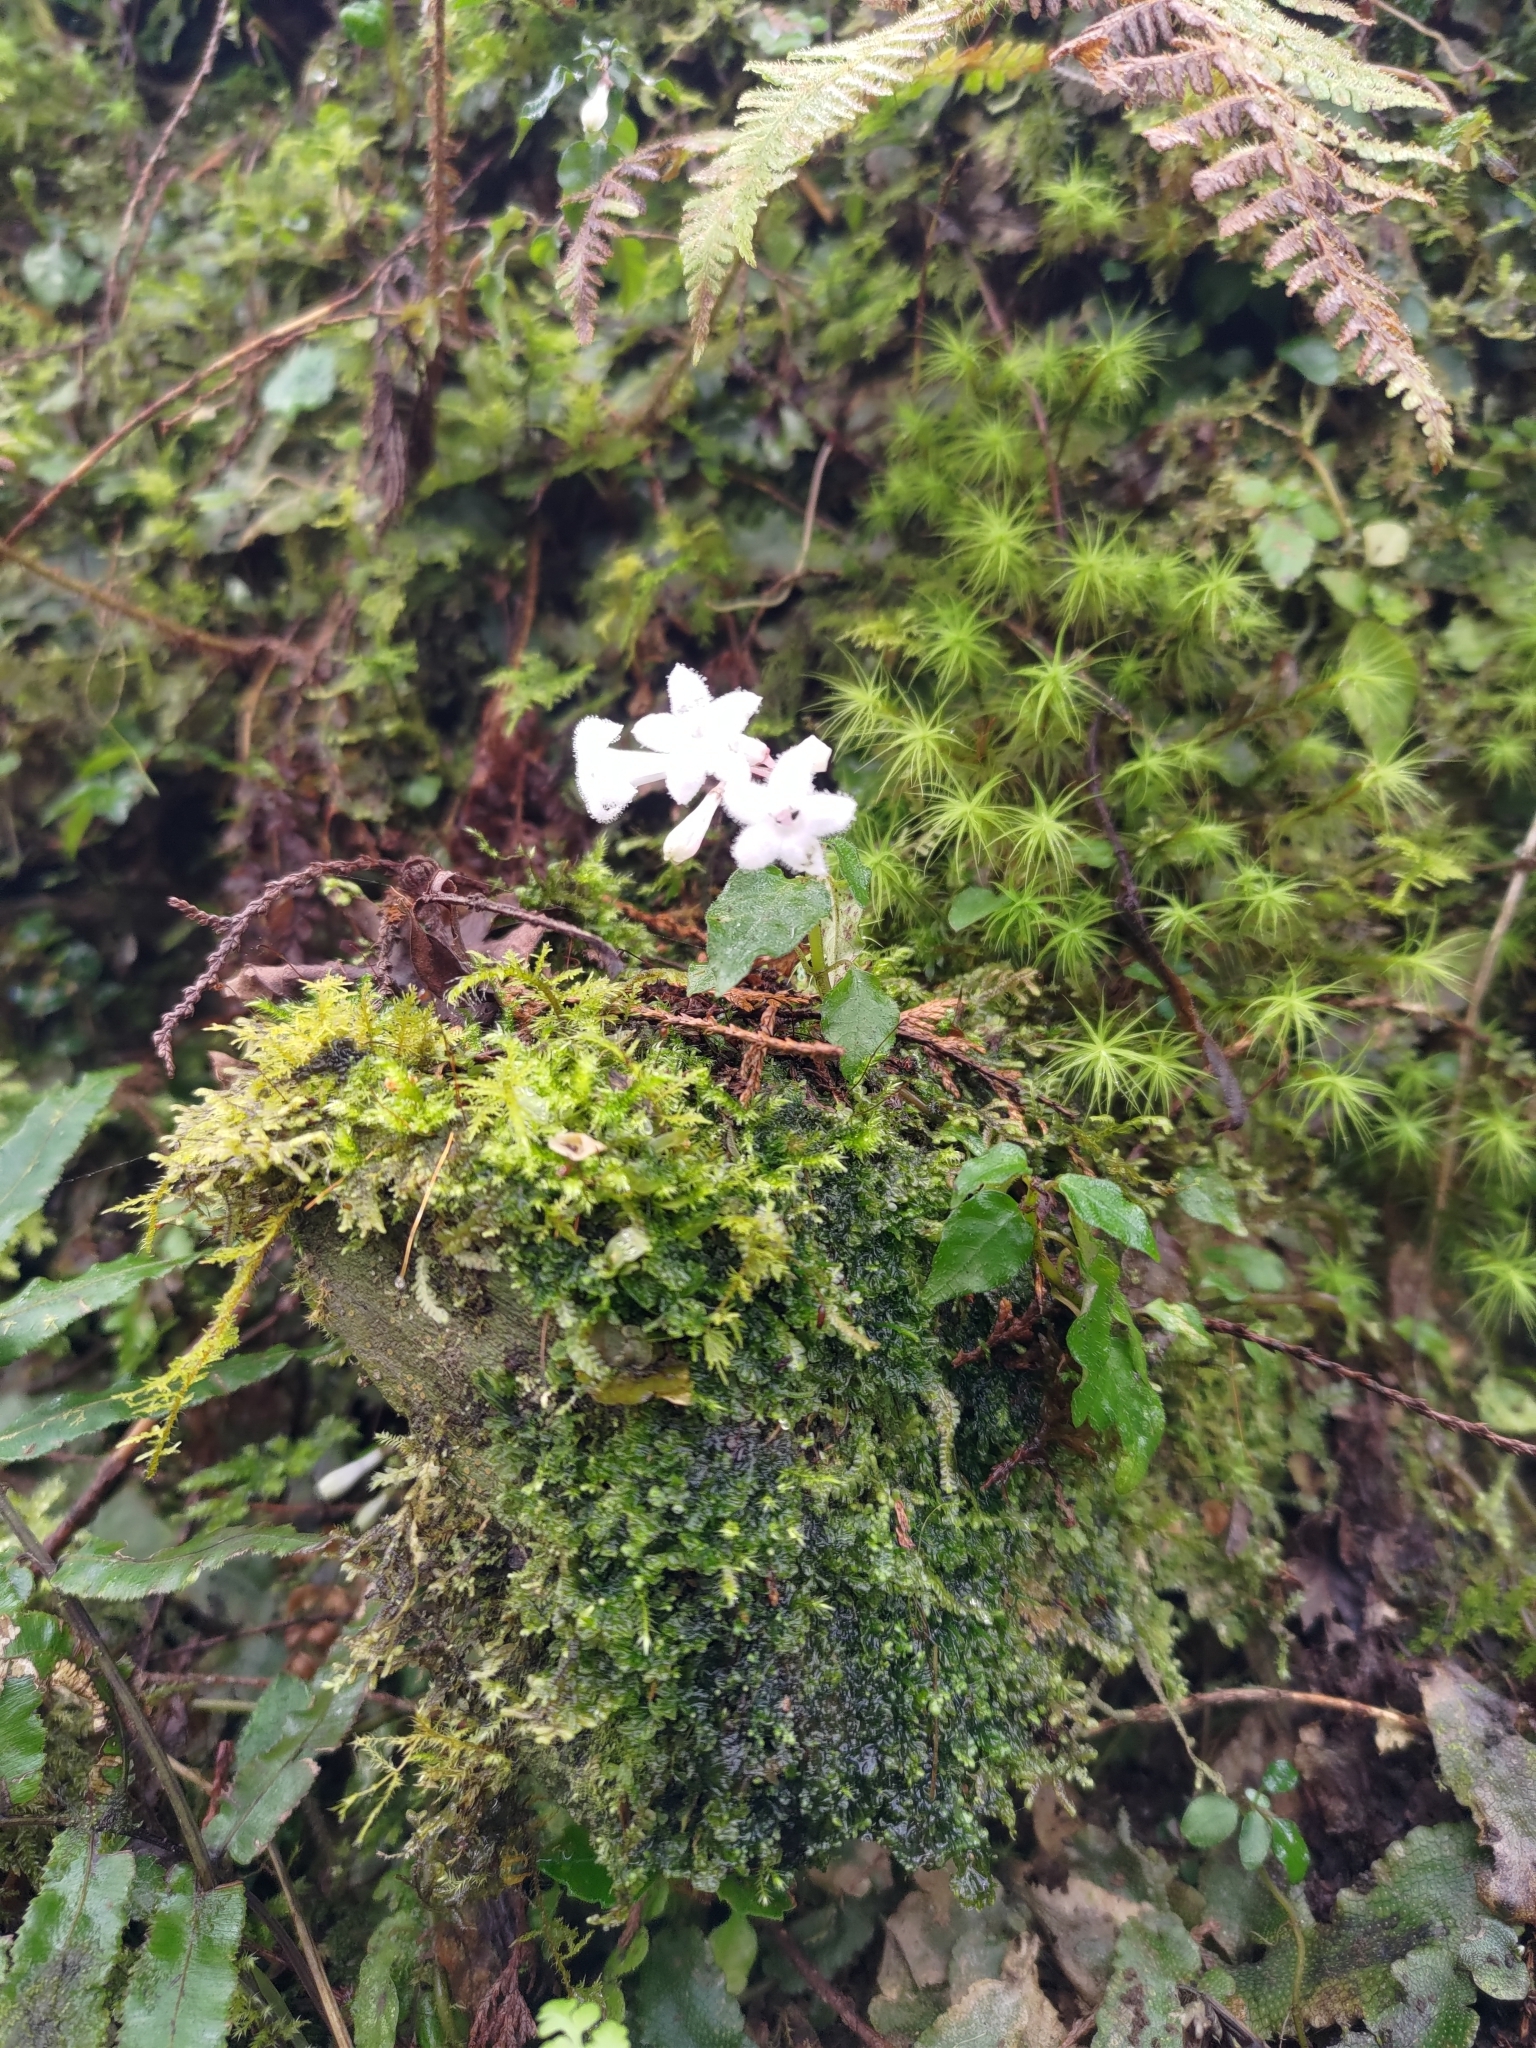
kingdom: Plantae
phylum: Tracheophyta
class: Magnoliopsida
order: Gentianales
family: Rubiaceae
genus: Ophiorrhiza
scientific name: Ophiorrhiza japonica
